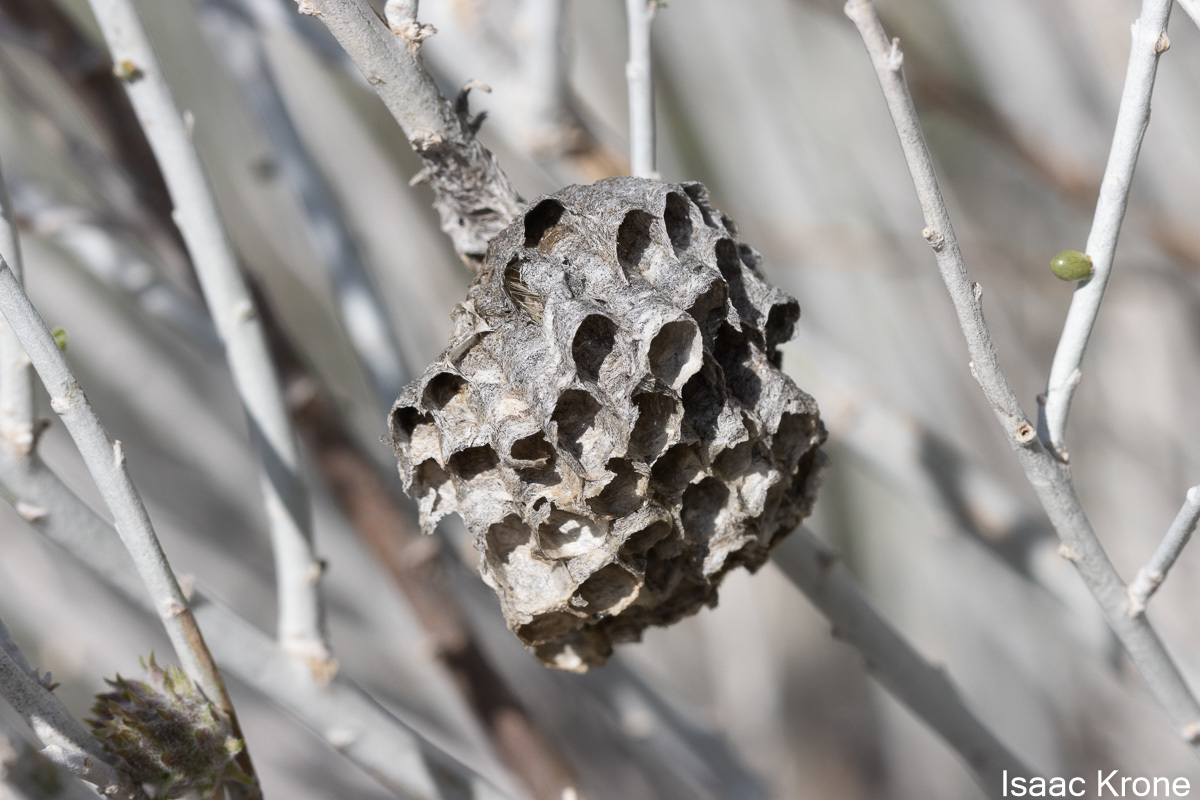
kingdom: Animalia
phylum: Arthropoda
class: Insecta
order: Hymenoptera
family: Eumenidae
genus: Polistes
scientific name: Polistes
